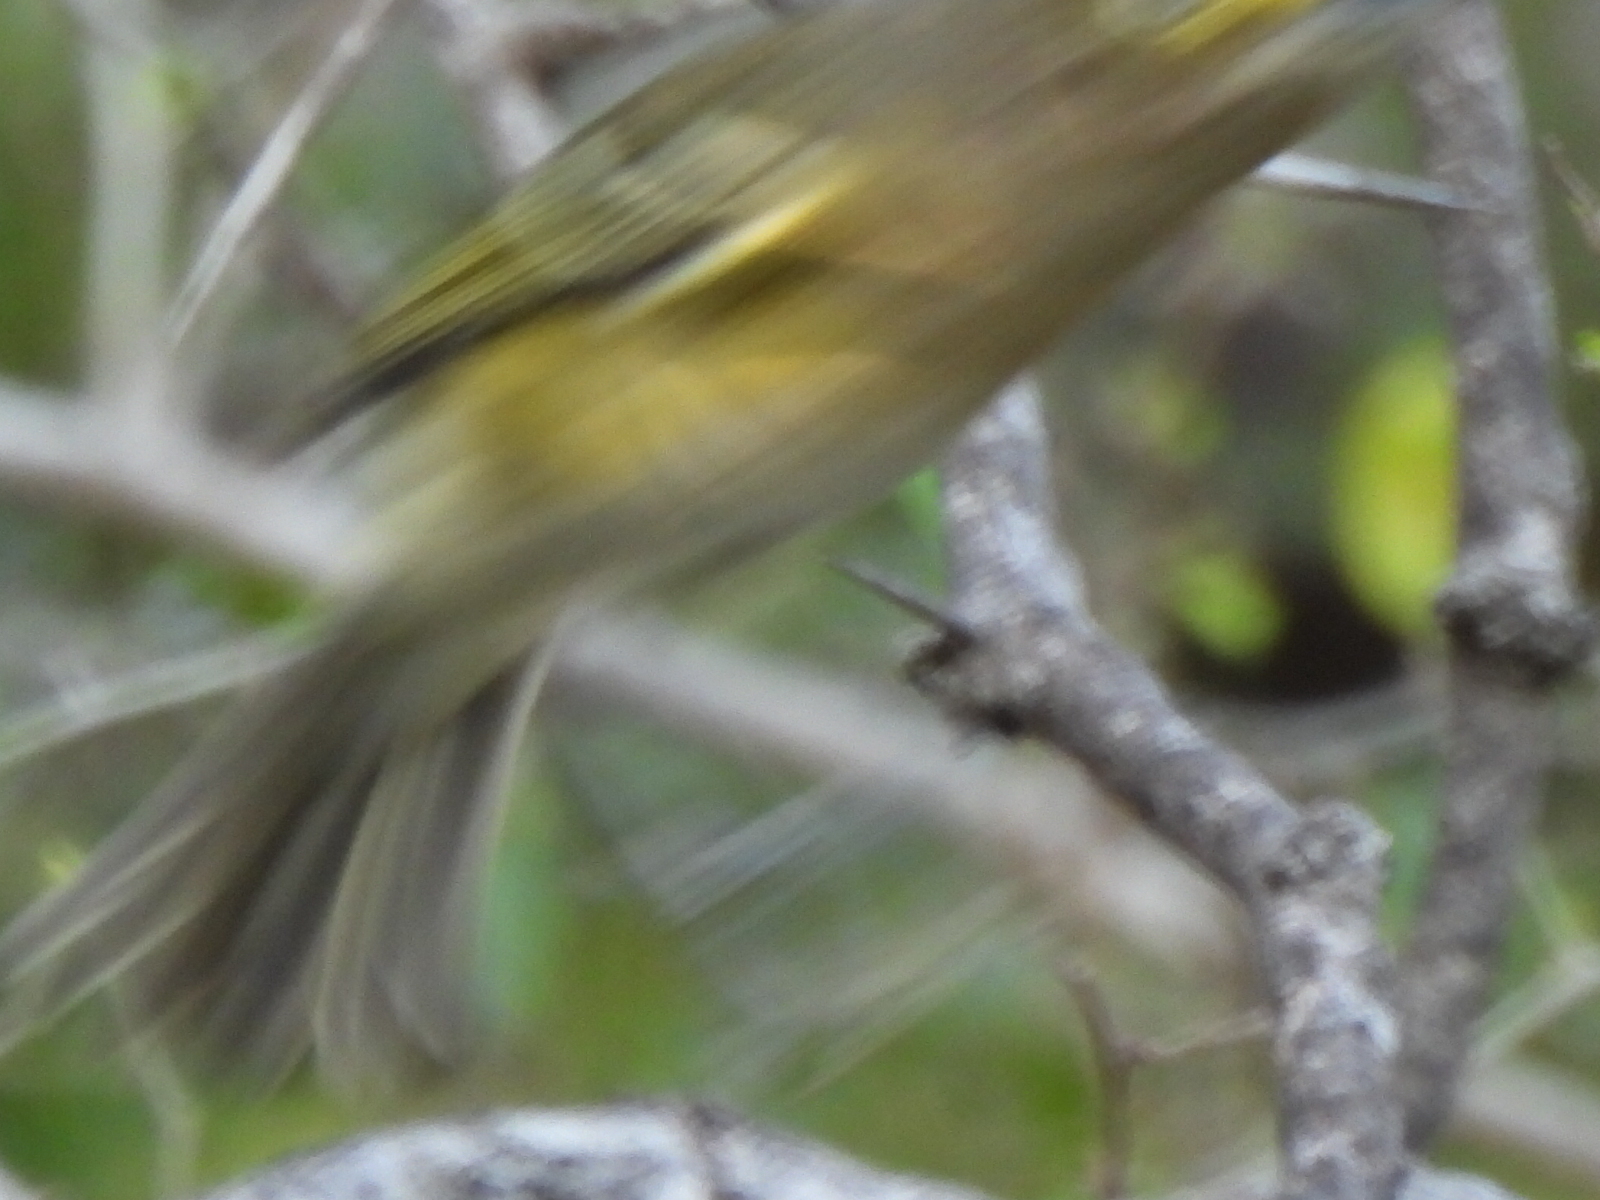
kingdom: Animalia
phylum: Chordata
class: Aves
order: Passeriformes
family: Vireonidae
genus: Vireo
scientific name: Vireo griseus
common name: White-eyed vireo
